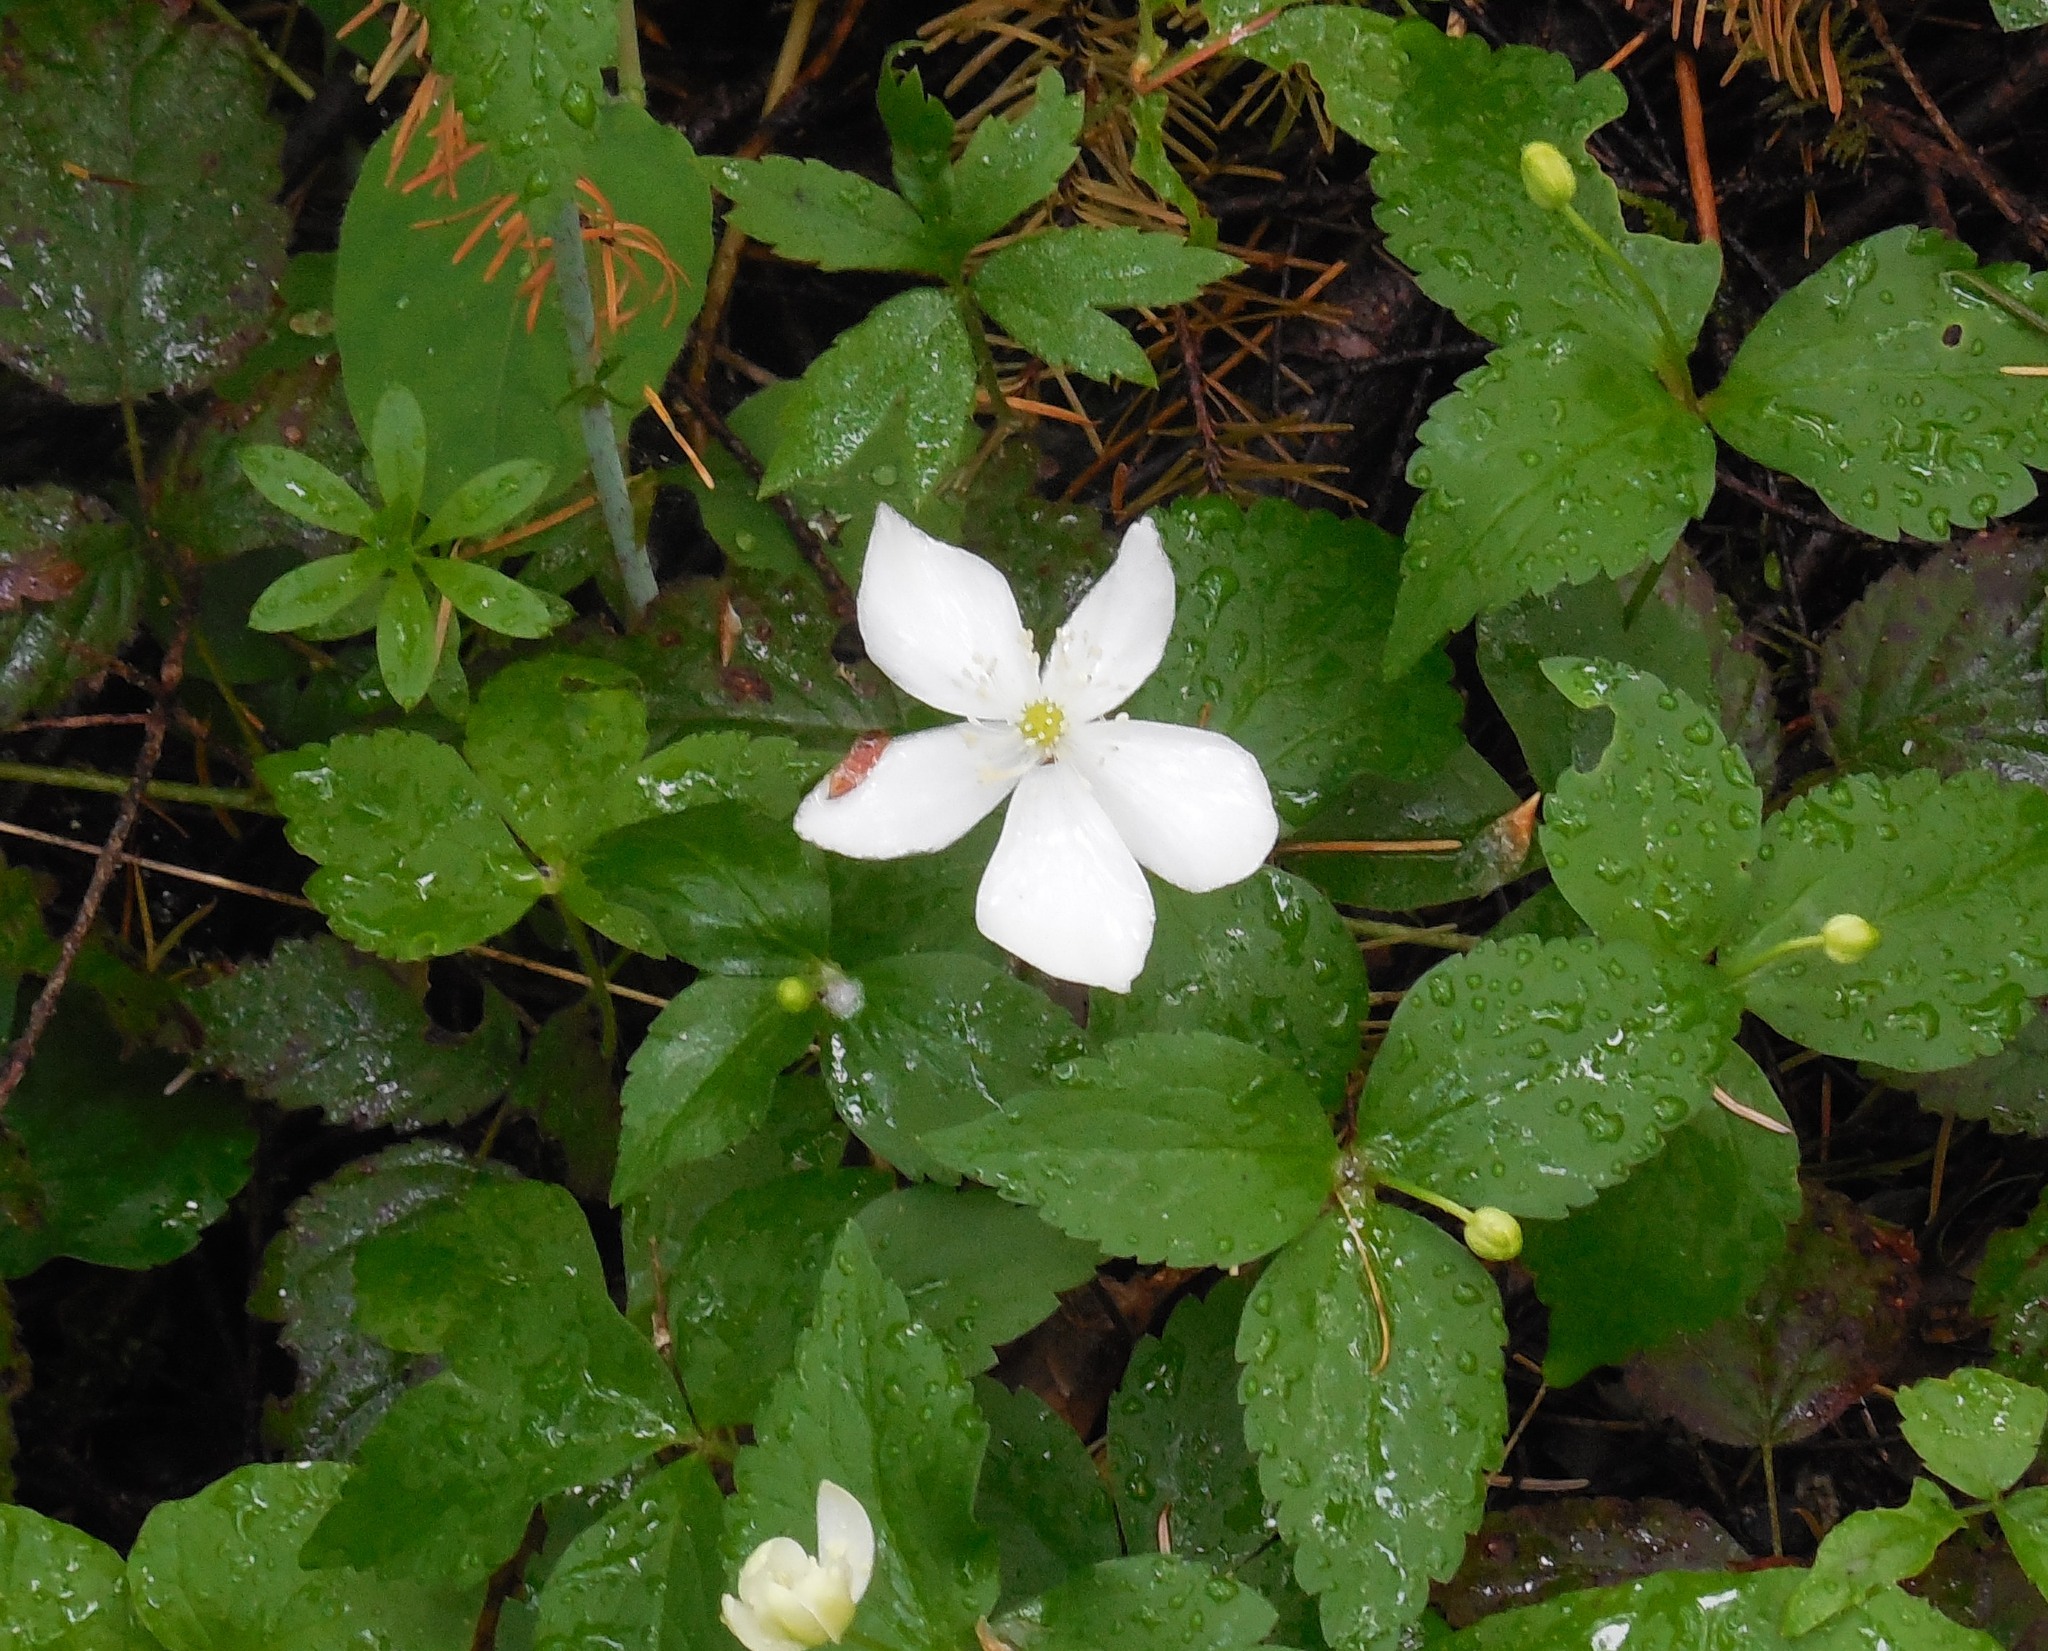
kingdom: Plantae
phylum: Tracheophyta
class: Magnoliopsida
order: Ranunculales
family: Ranunculaceae
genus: Anemonastrum
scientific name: Anemonastrum deltoideum
